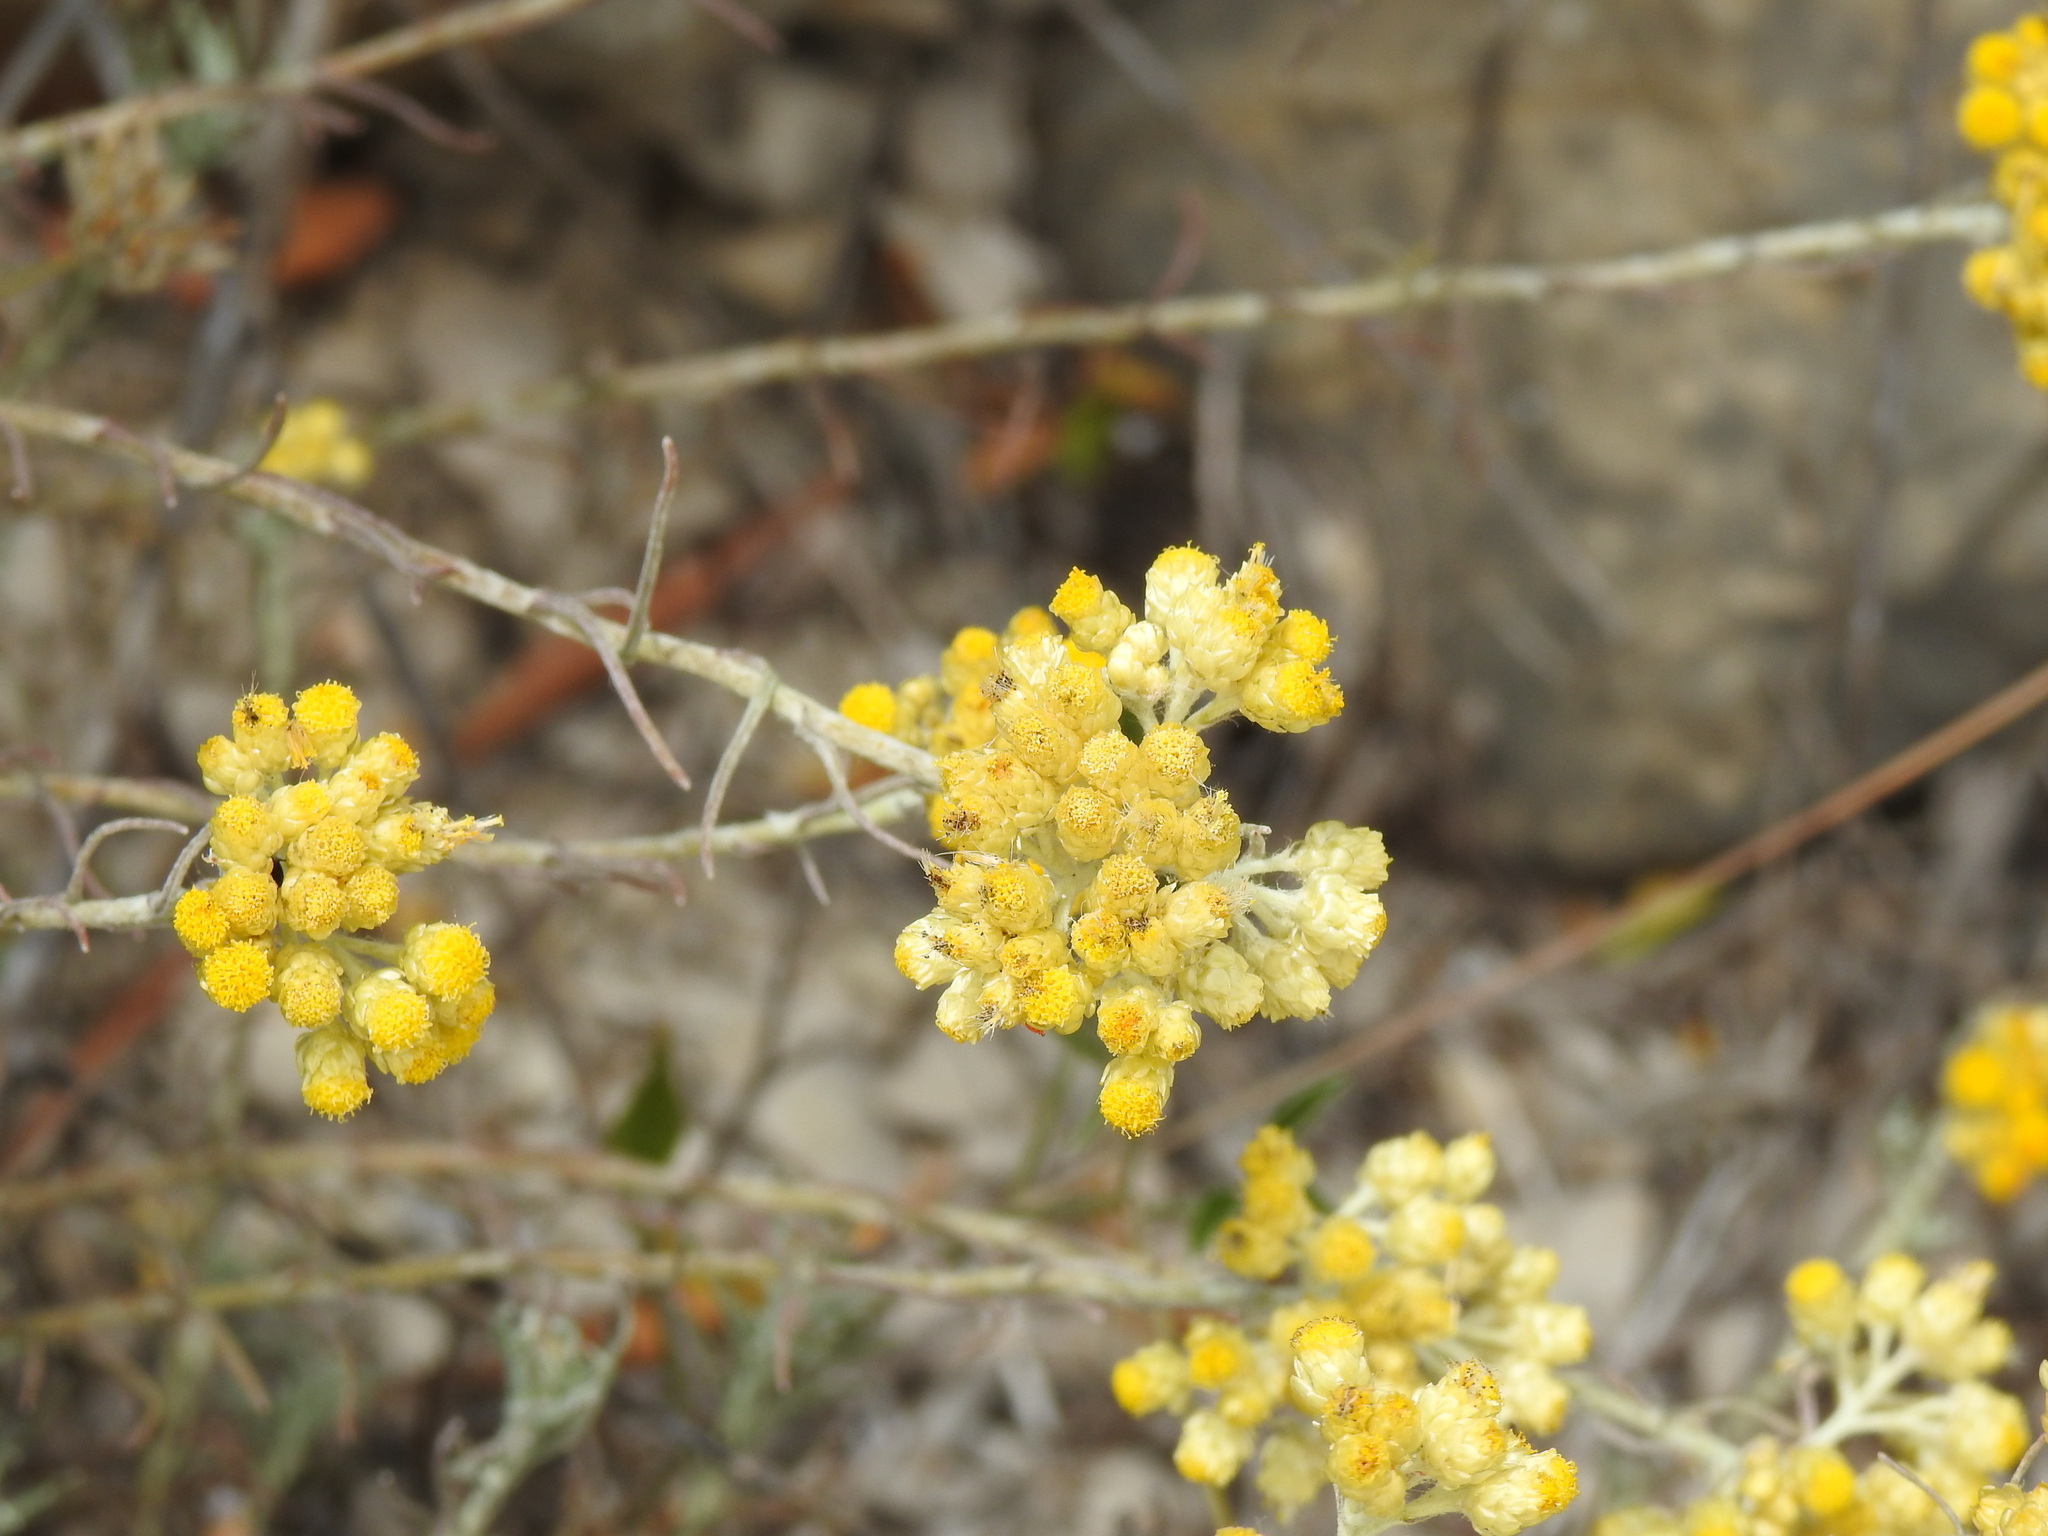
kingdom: Plantae
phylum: Tracheophyta
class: Magnoliopsida
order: Asterales
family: Asteraceae
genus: Helichrysum
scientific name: Helichrysum stoechas
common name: Goldilocks
